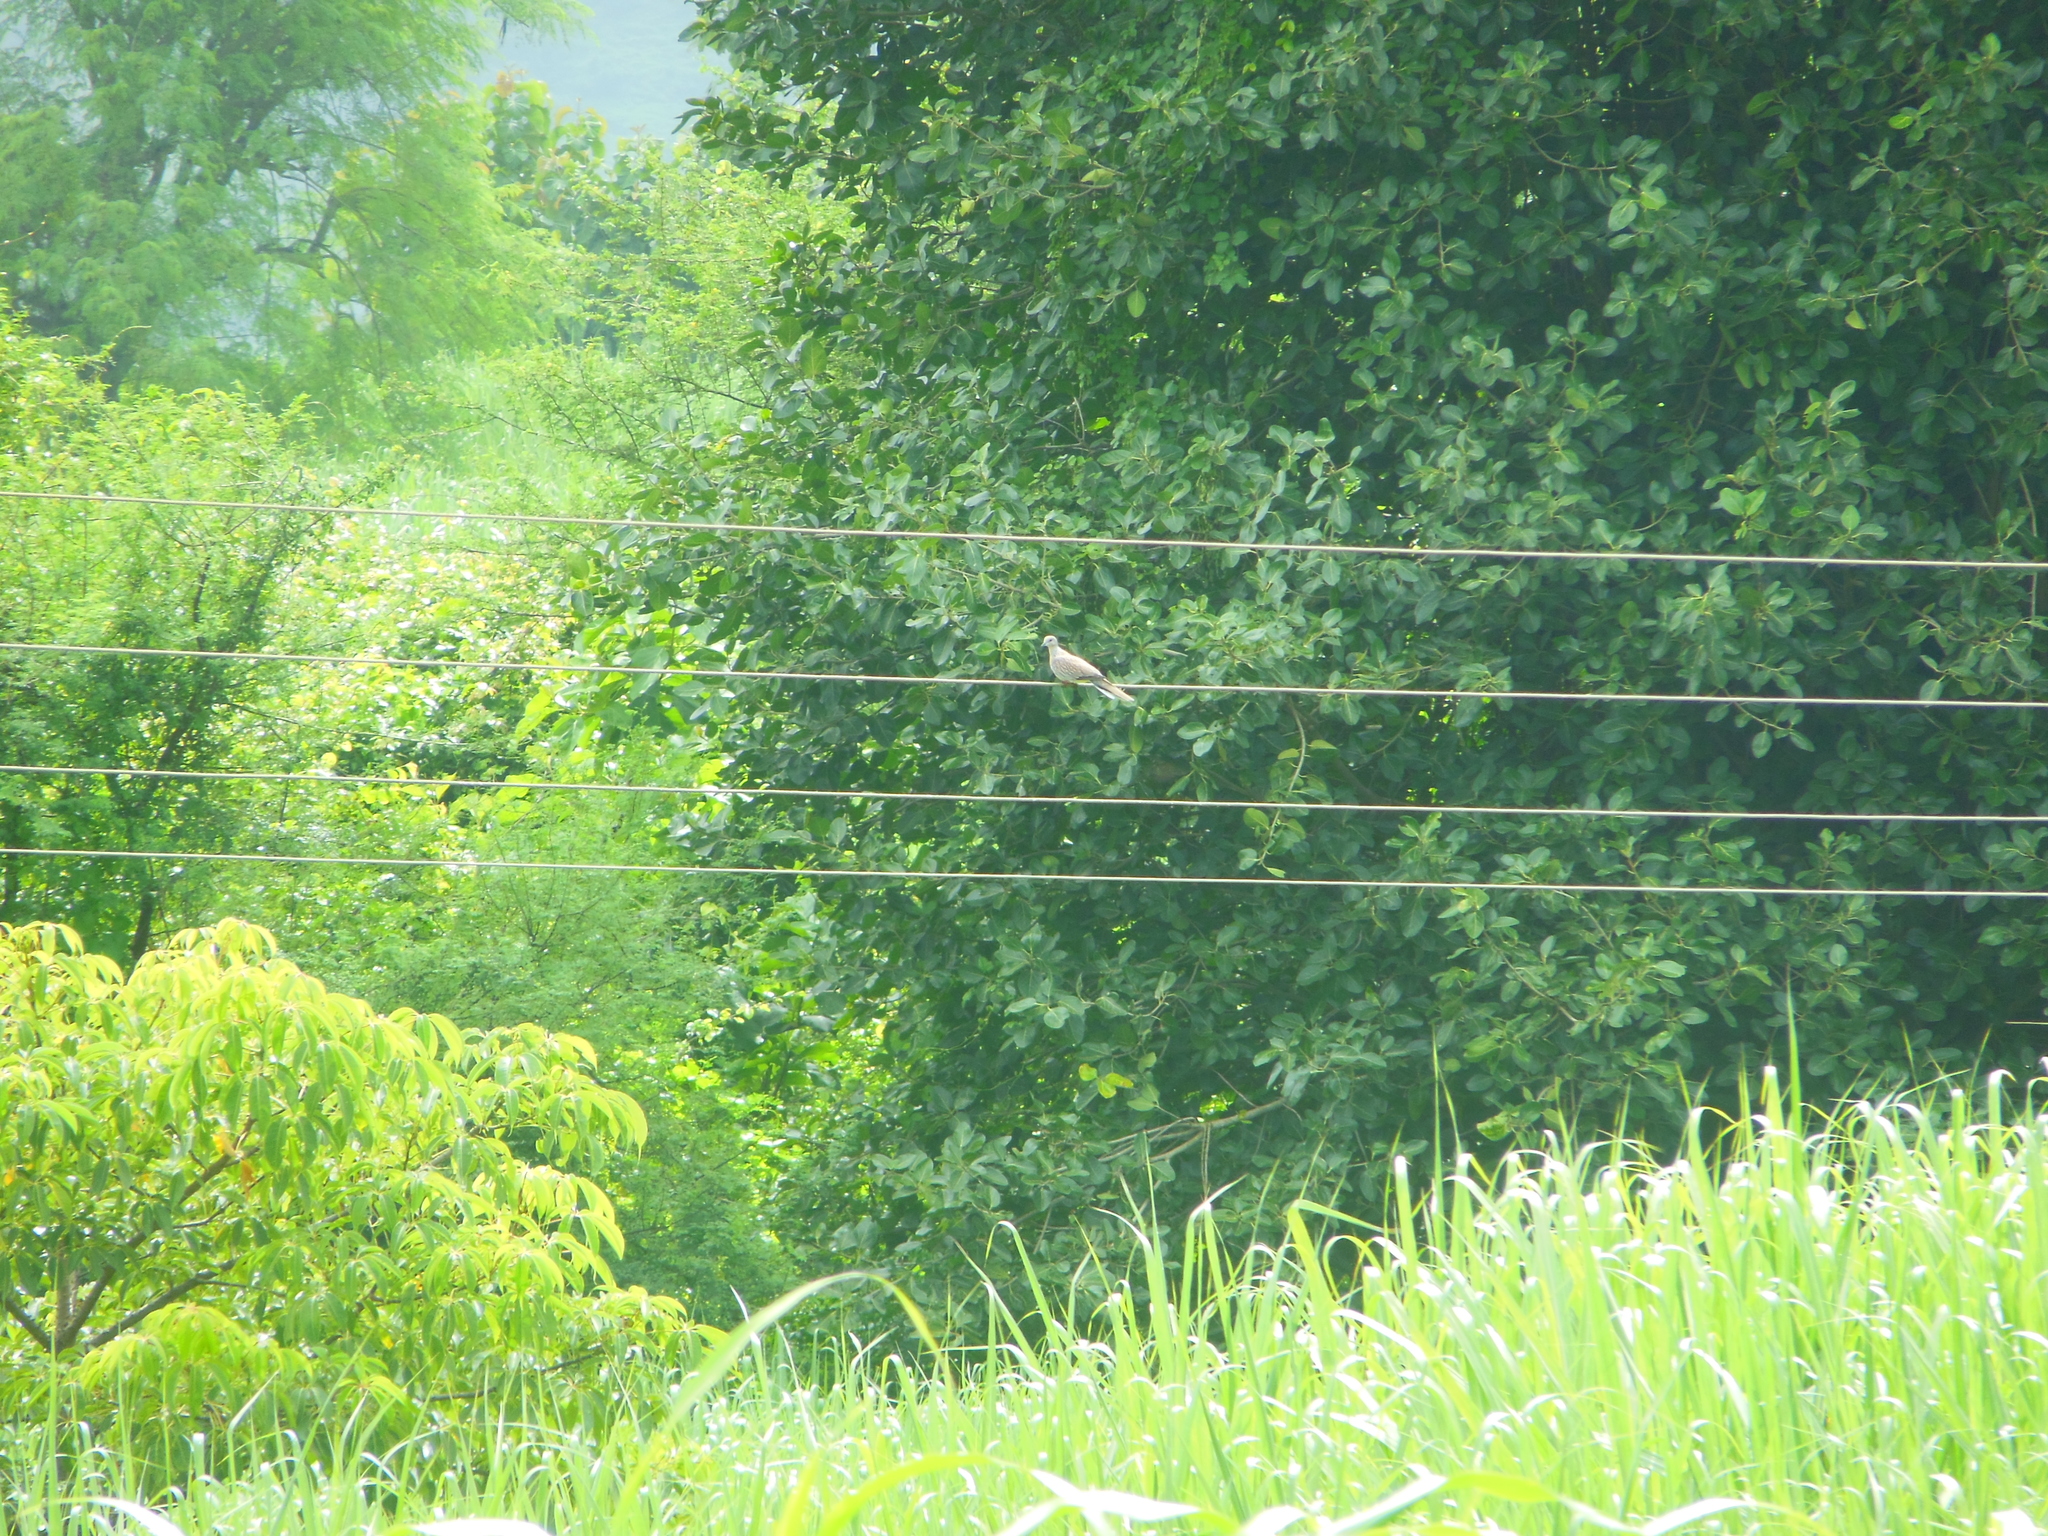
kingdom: Animalia
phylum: Chordata
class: Aves
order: Columbiformes
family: Columbidae
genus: Spilopelia
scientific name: Spilopelia chinensis
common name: Spotted dove
